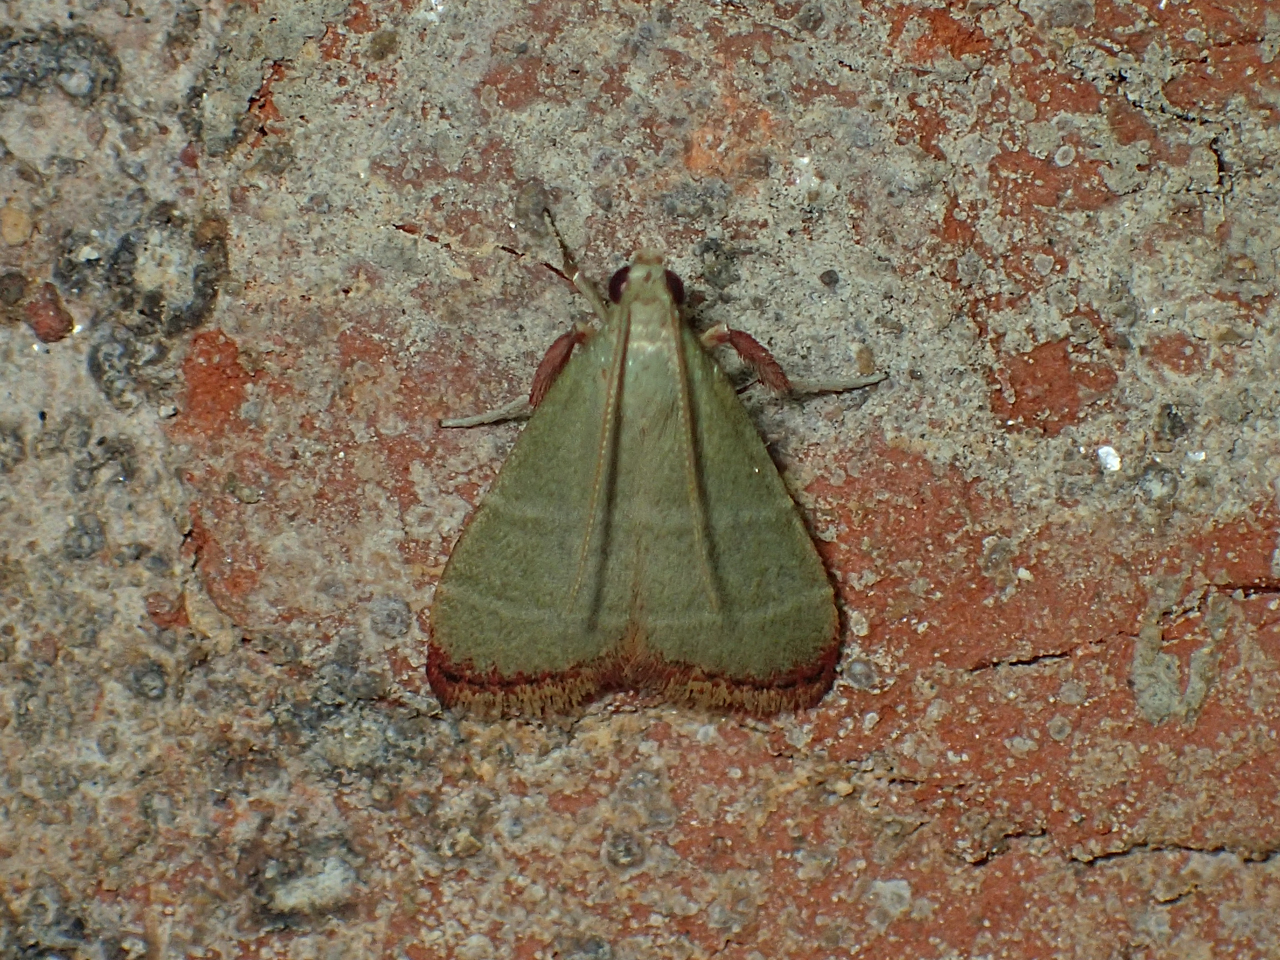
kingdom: Animalia
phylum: Arthropoda
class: Insecta
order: Lepidoptera
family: Pyralidae
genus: Arta
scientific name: Arta olivalis
